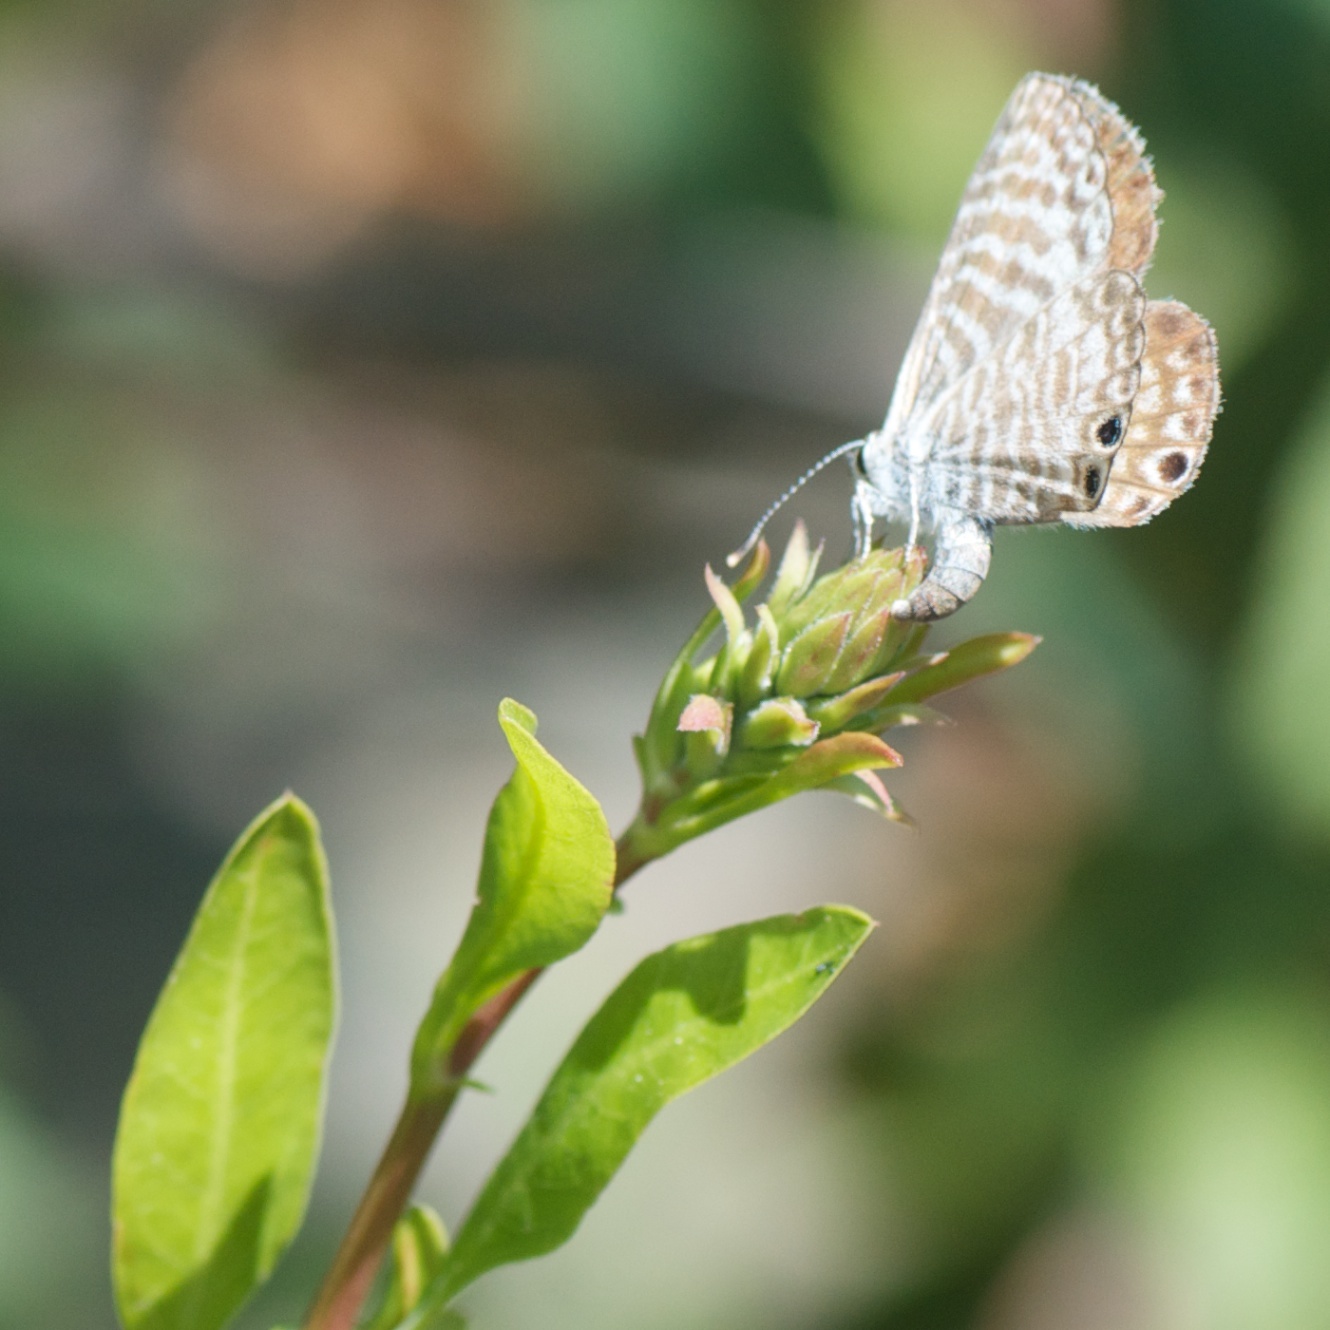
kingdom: Animalia
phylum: Arthropoda
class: Insecta
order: Lepidoptera
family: Lycaenidae
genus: Leptotes
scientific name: Leptotes marina
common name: Marine blue
